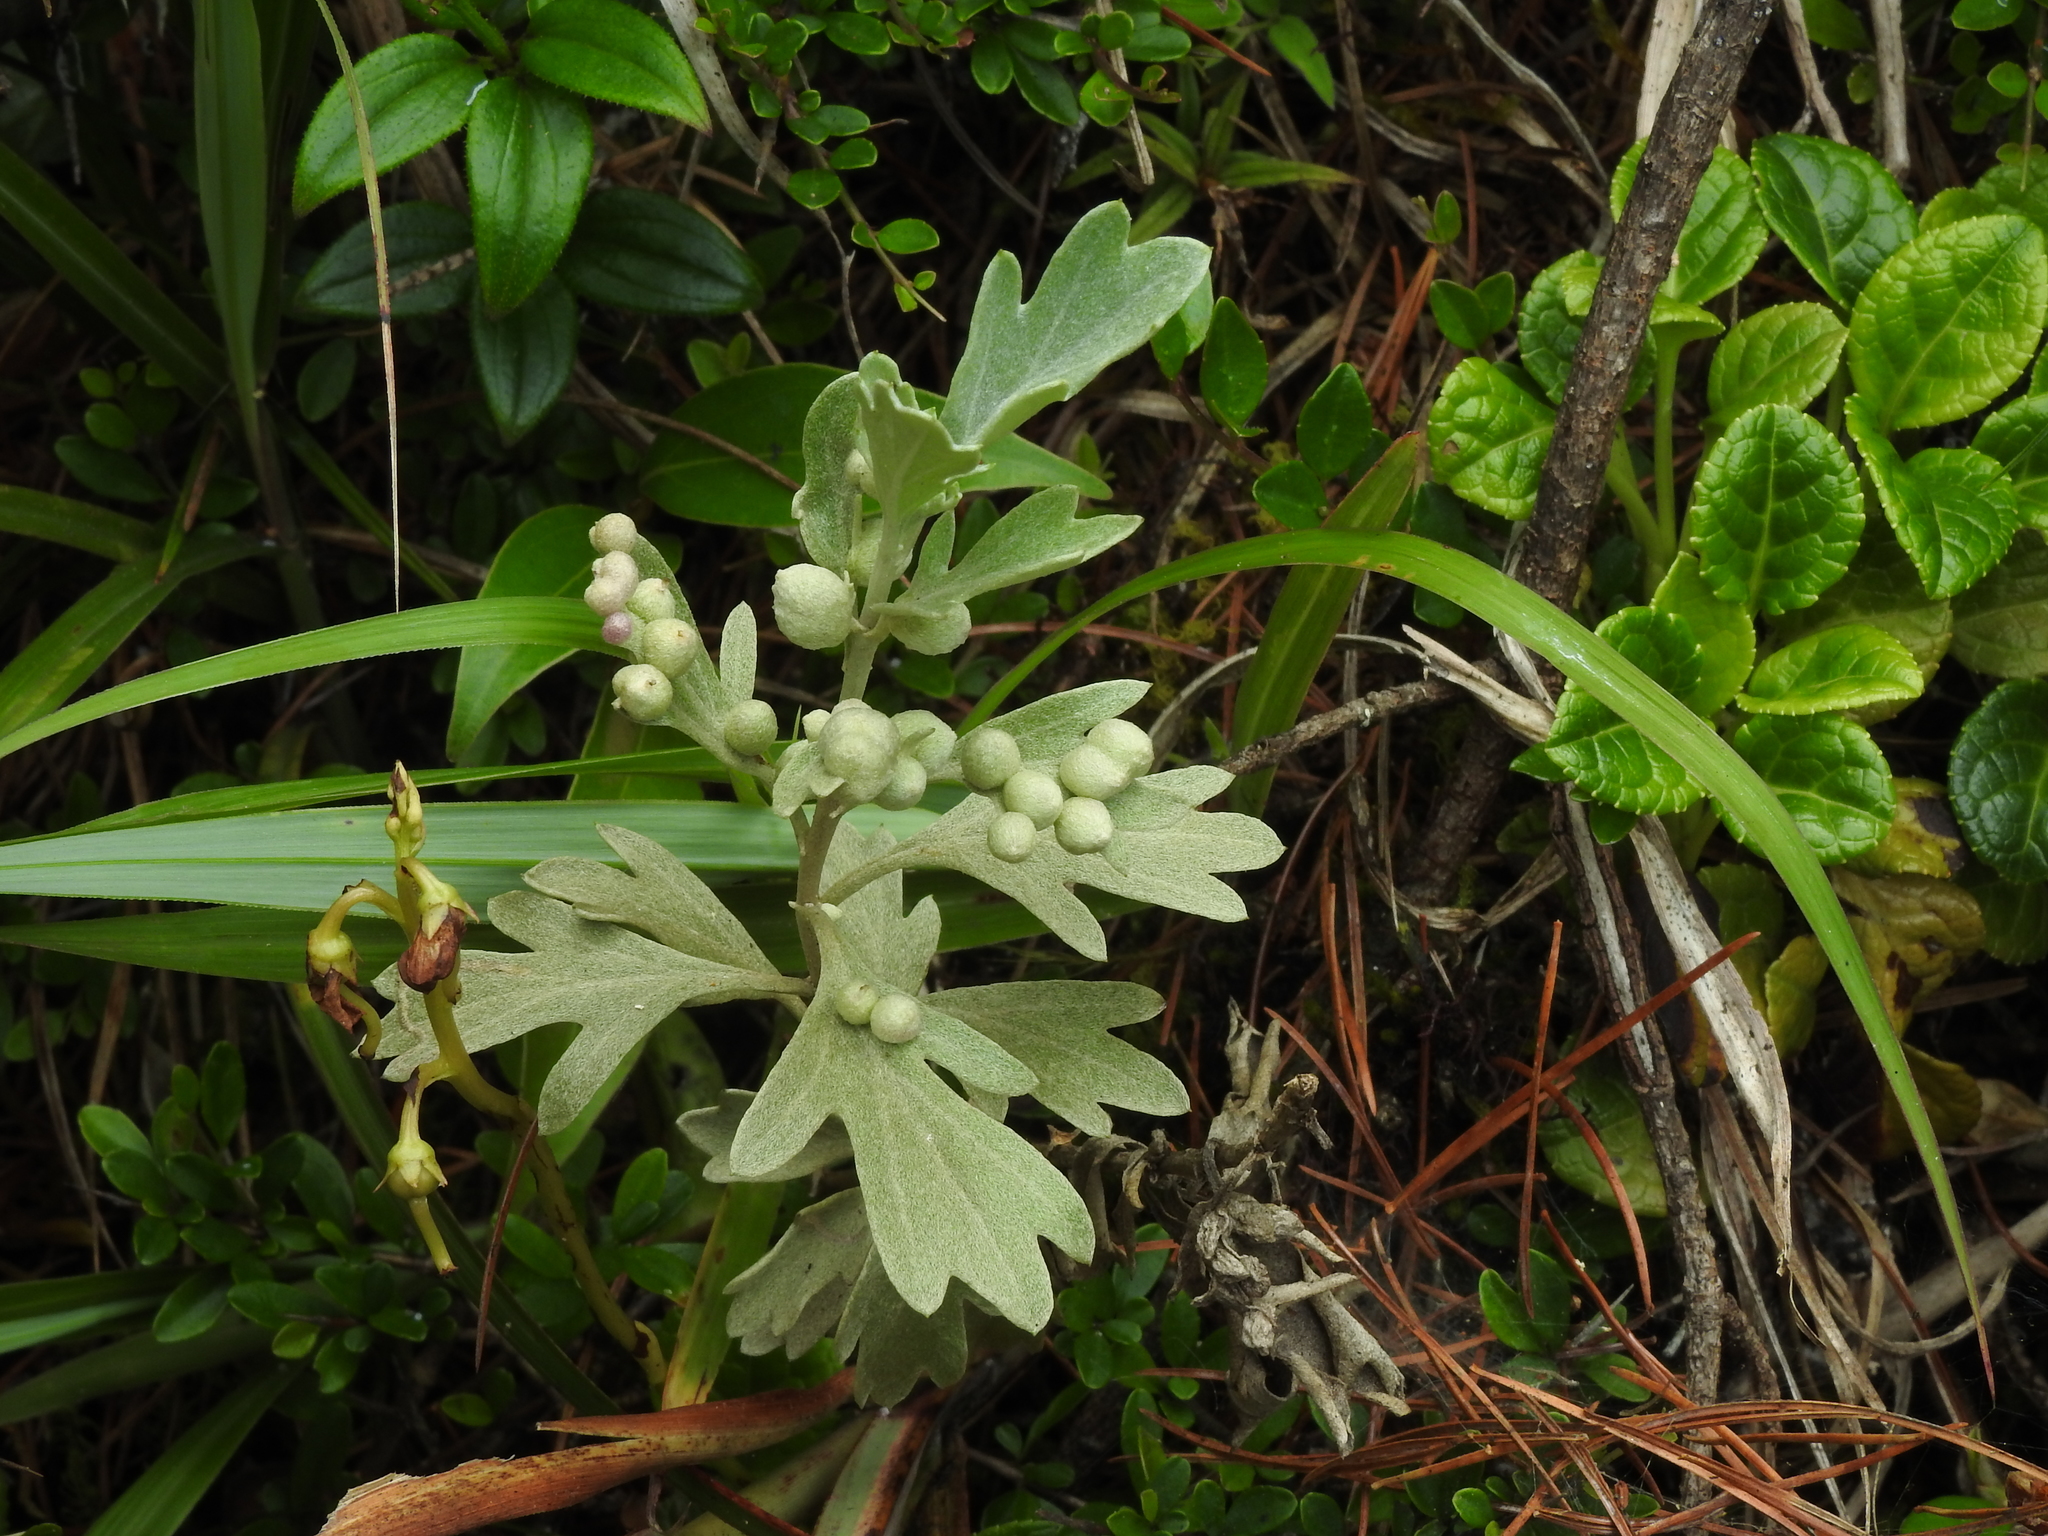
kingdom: Plantae
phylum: Tracheophyta
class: Magnoliopsida
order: Asterales
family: Asteraceae
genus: Chrysanthemum
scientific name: Chrysanthemum morii
